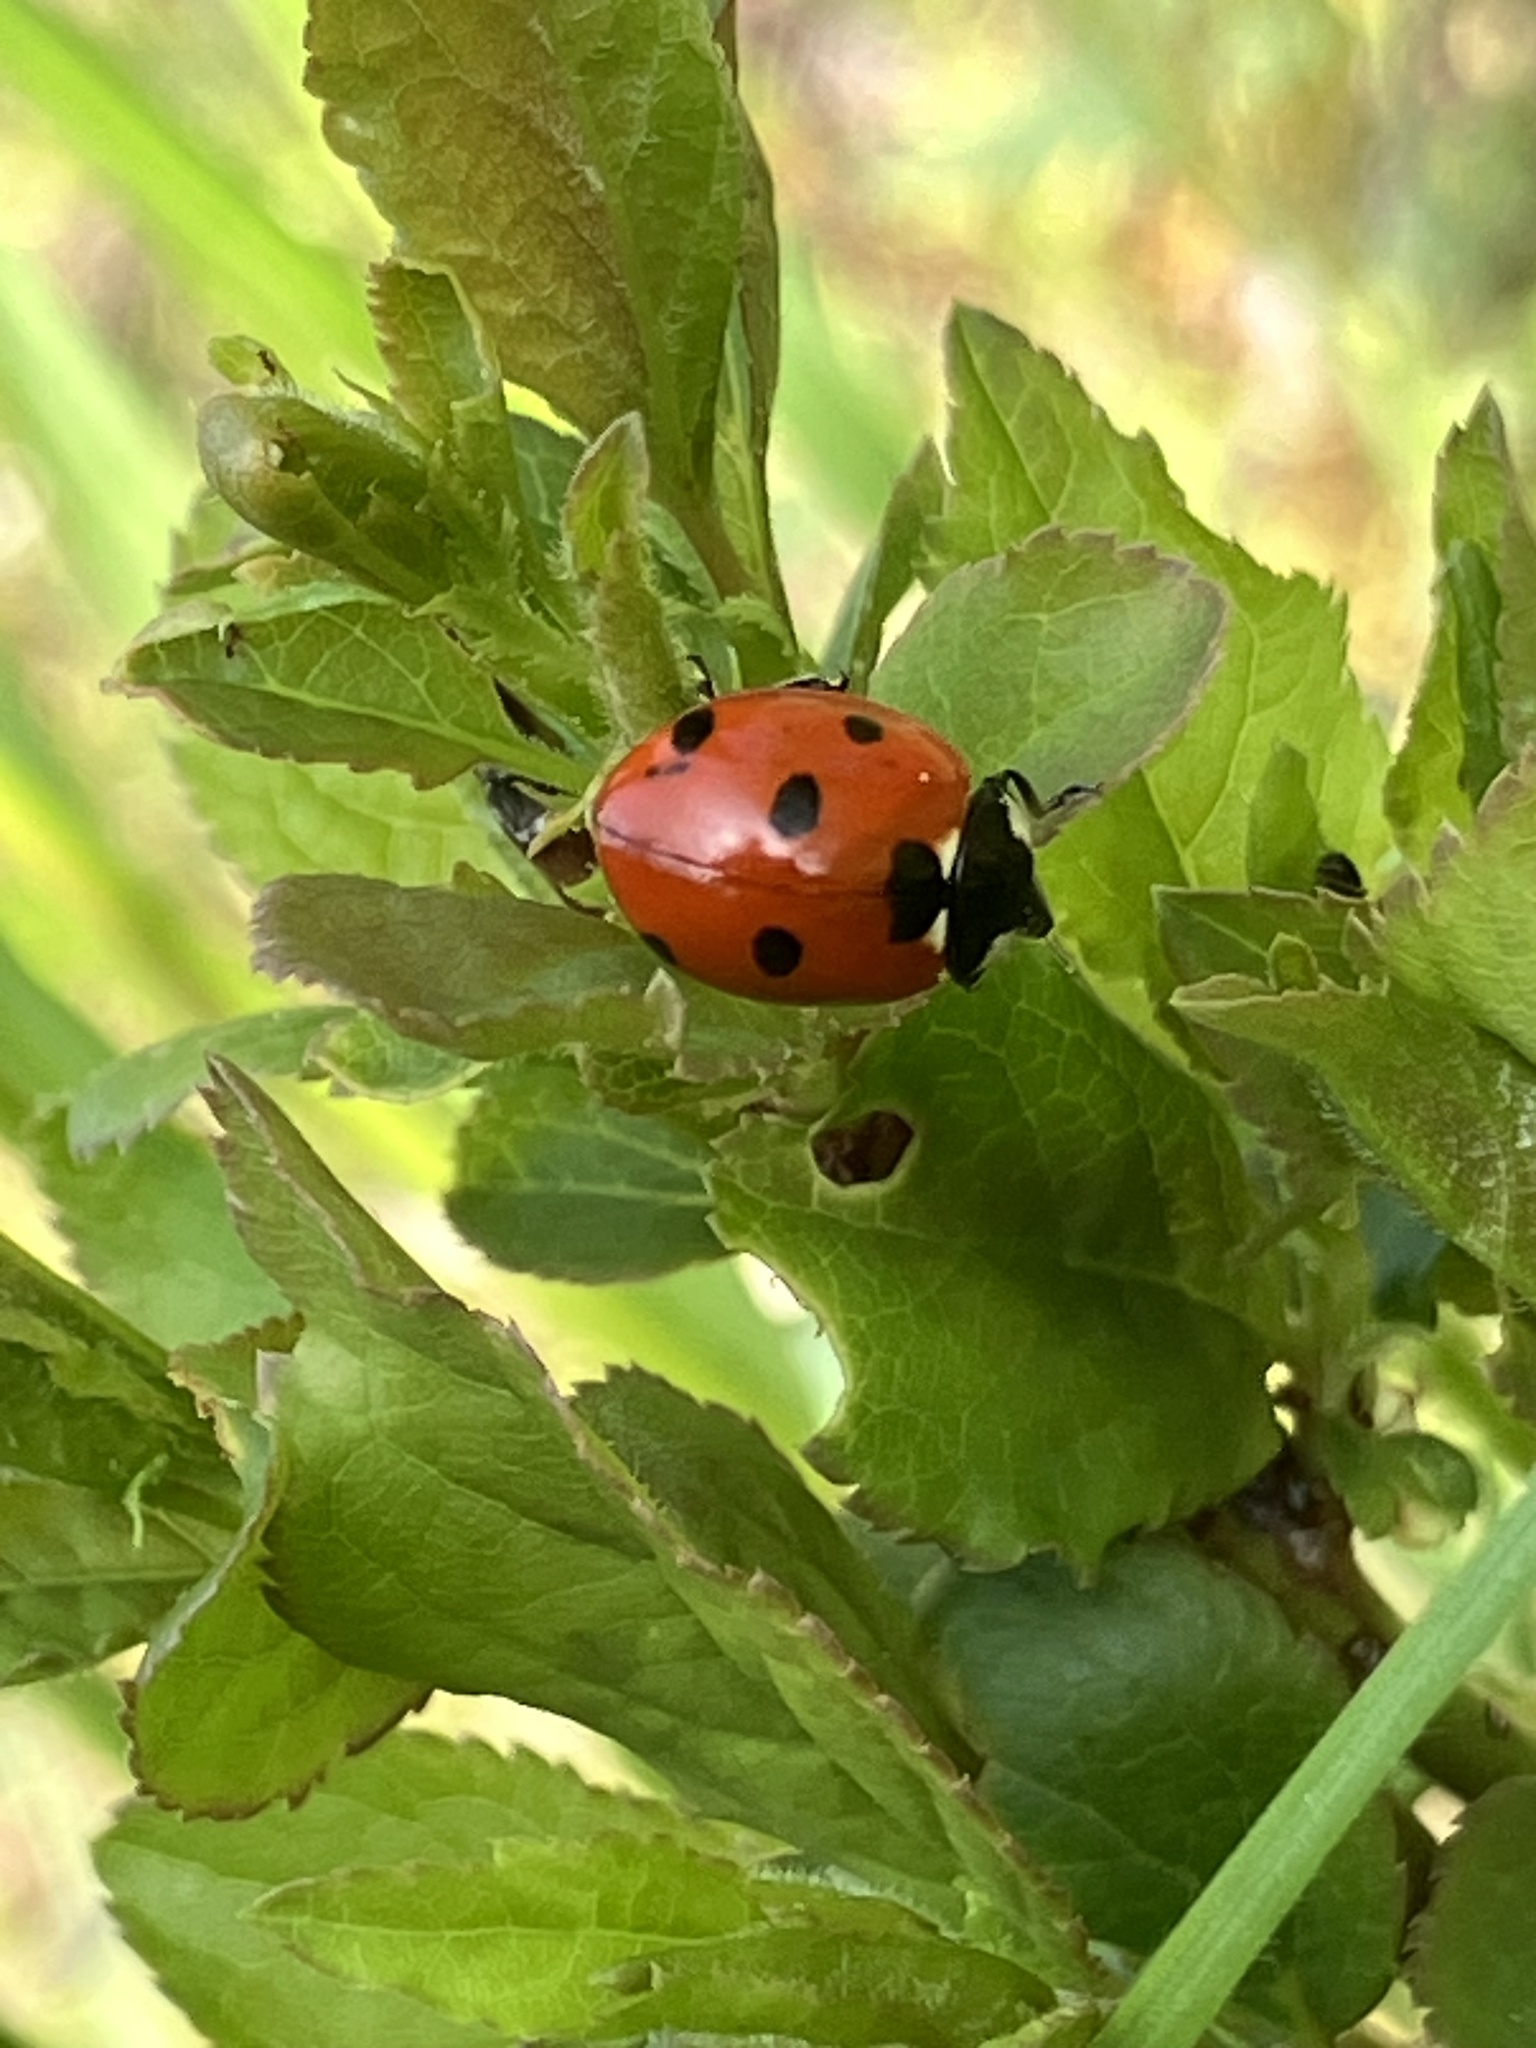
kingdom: Animalia
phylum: Arthropoda
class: Insecta
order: Coleoptera
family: Coccinellidae
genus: Coccinella
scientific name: Coccinella septempunctata
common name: Sevenspotted lady beetle
